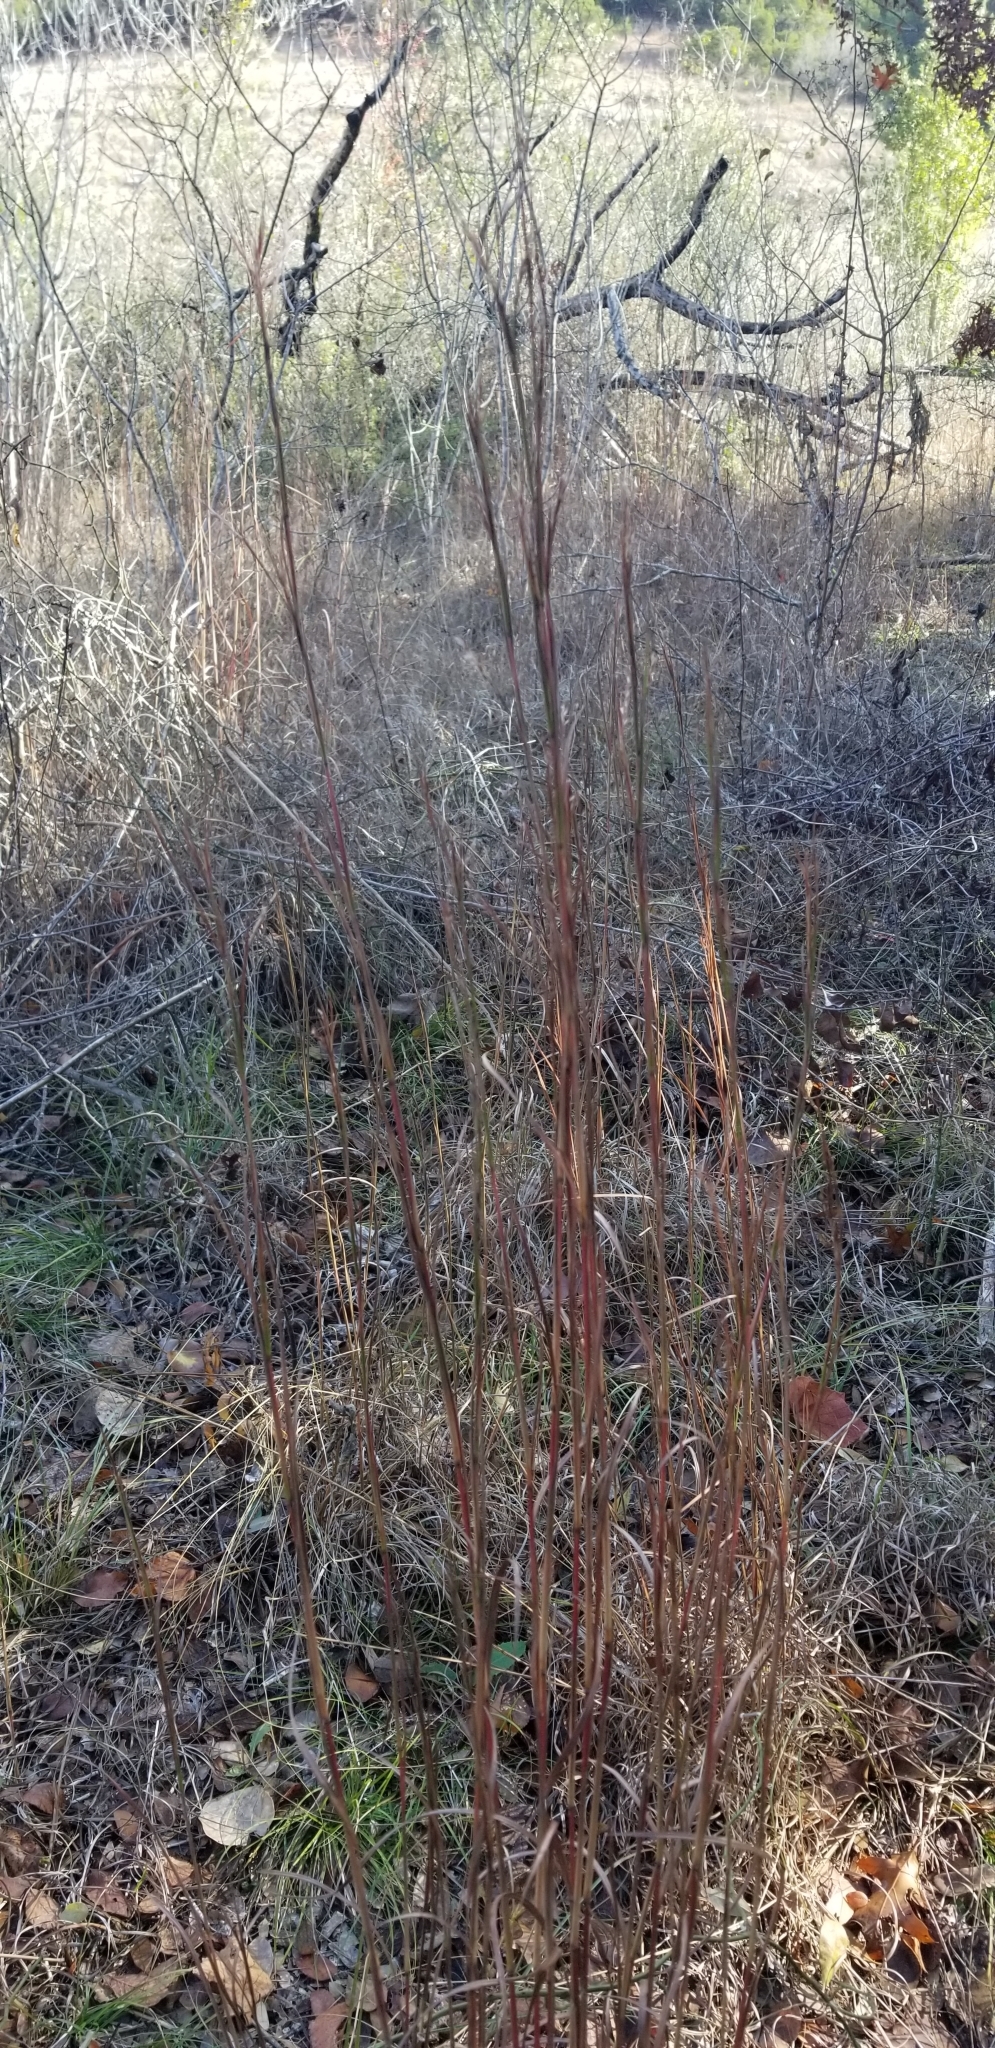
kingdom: Plantae
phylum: Tracheophyta
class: Liliopsida
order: Poales
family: Poaceae
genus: Schizachyrium
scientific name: Schizachyrium scoparium
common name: Little bluestem
